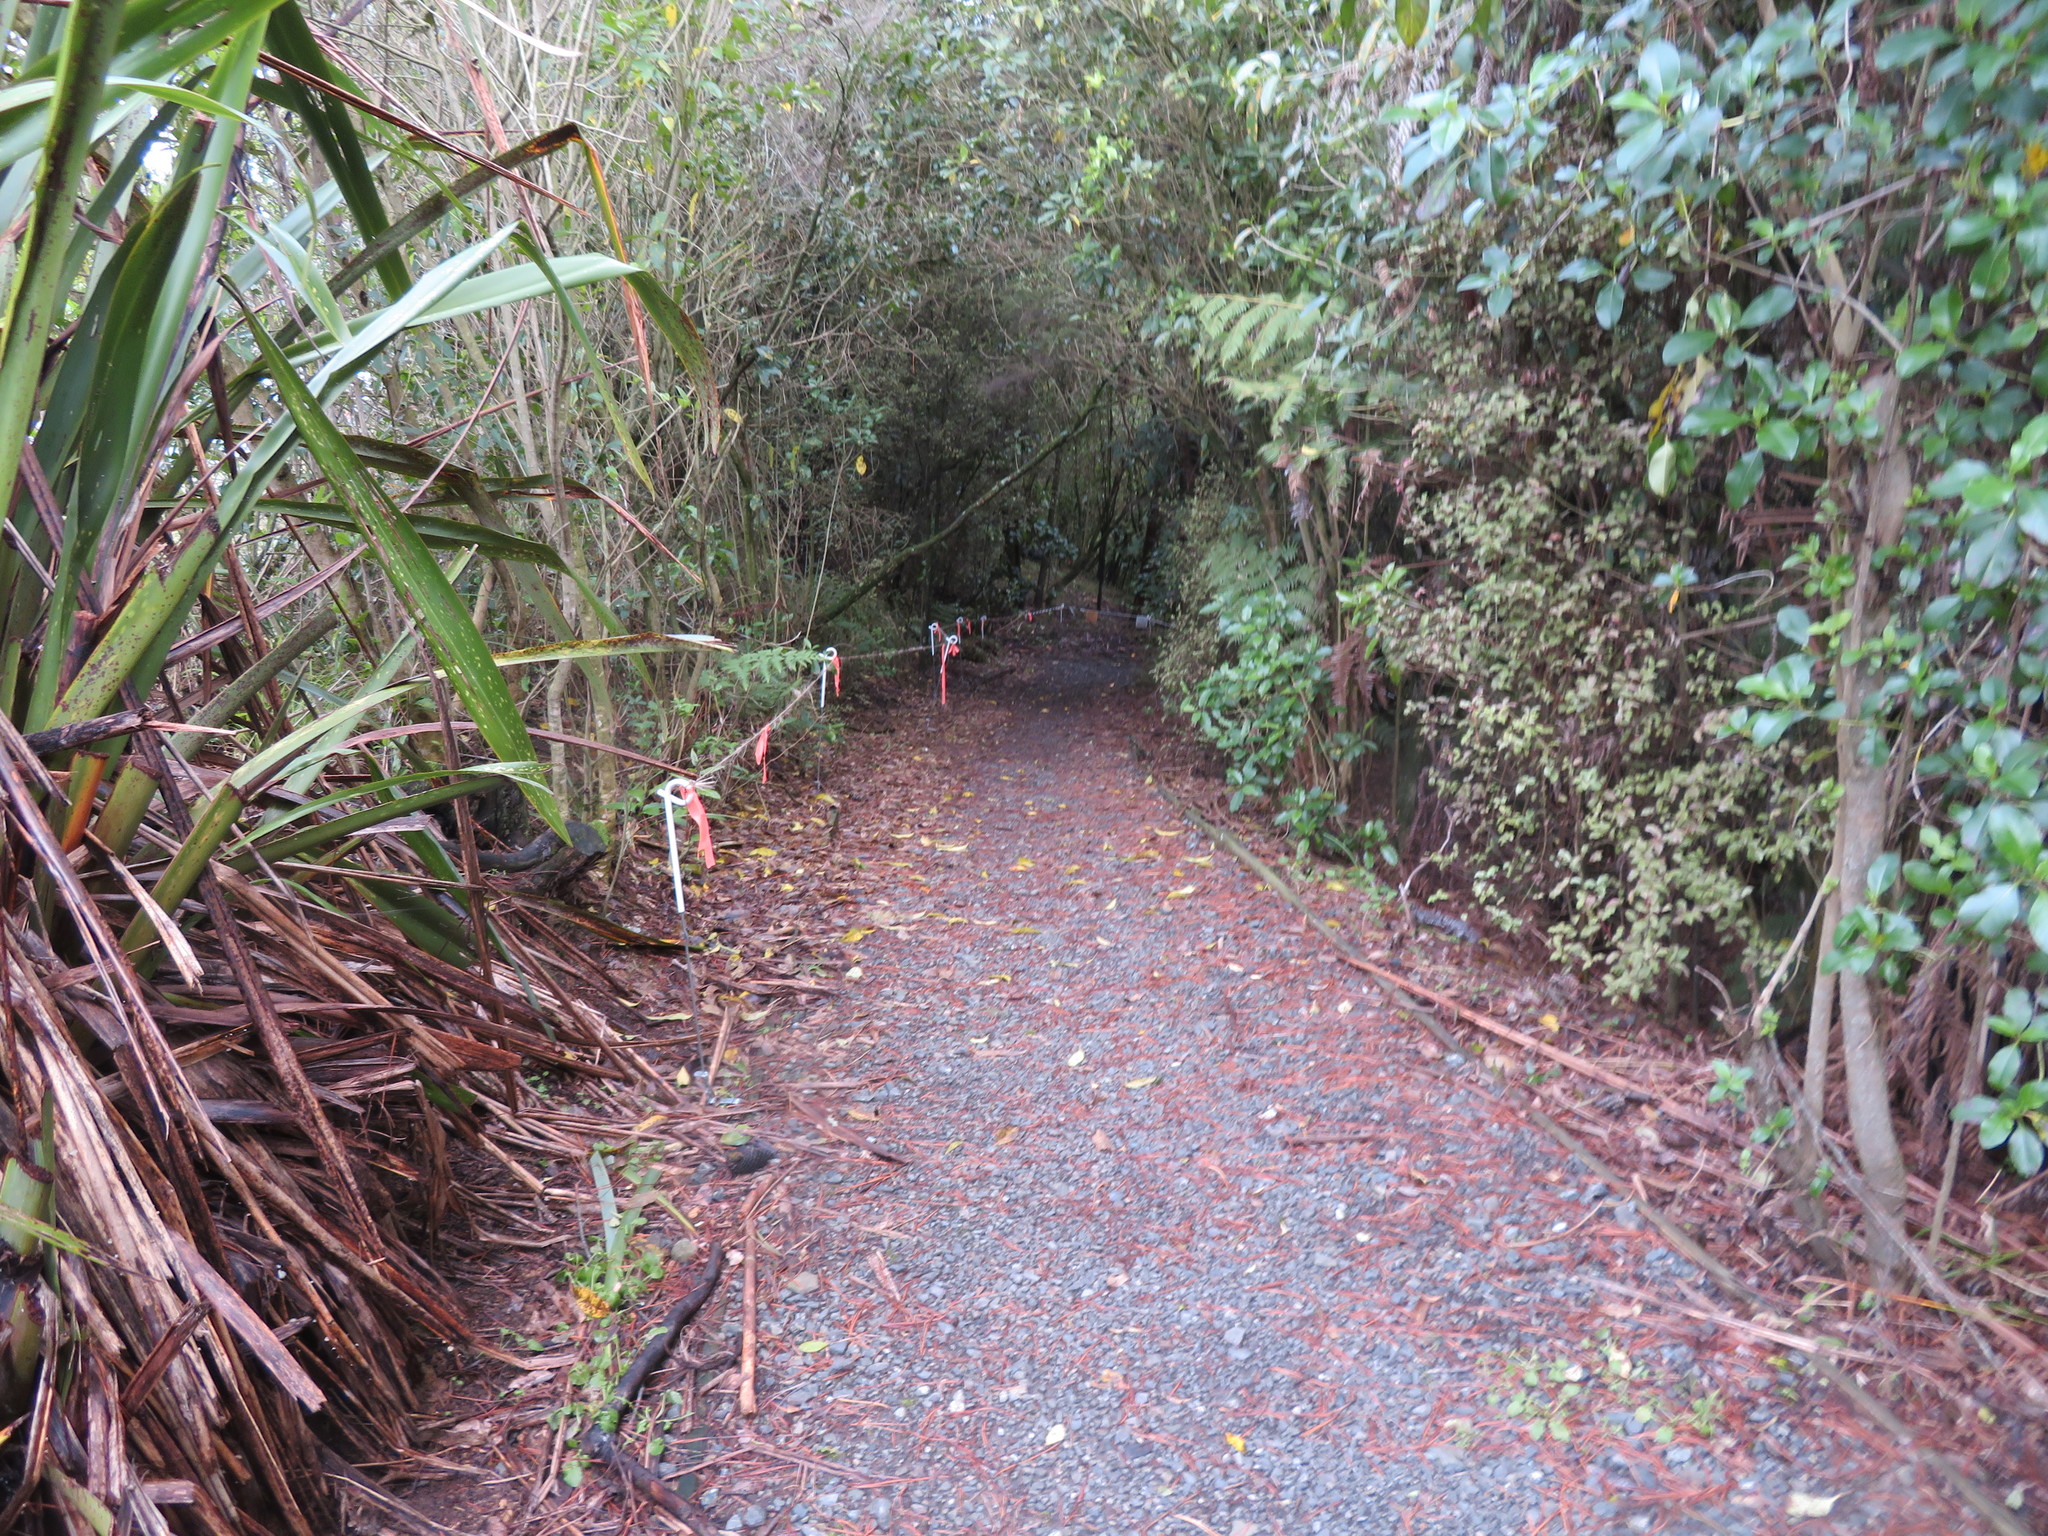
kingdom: Plantae
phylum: Tracheophyta
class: Liliopsida
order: Asparagales
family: Asphodelaceae
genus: Phormium
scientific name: Phormium tenax
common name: New zealand flax
